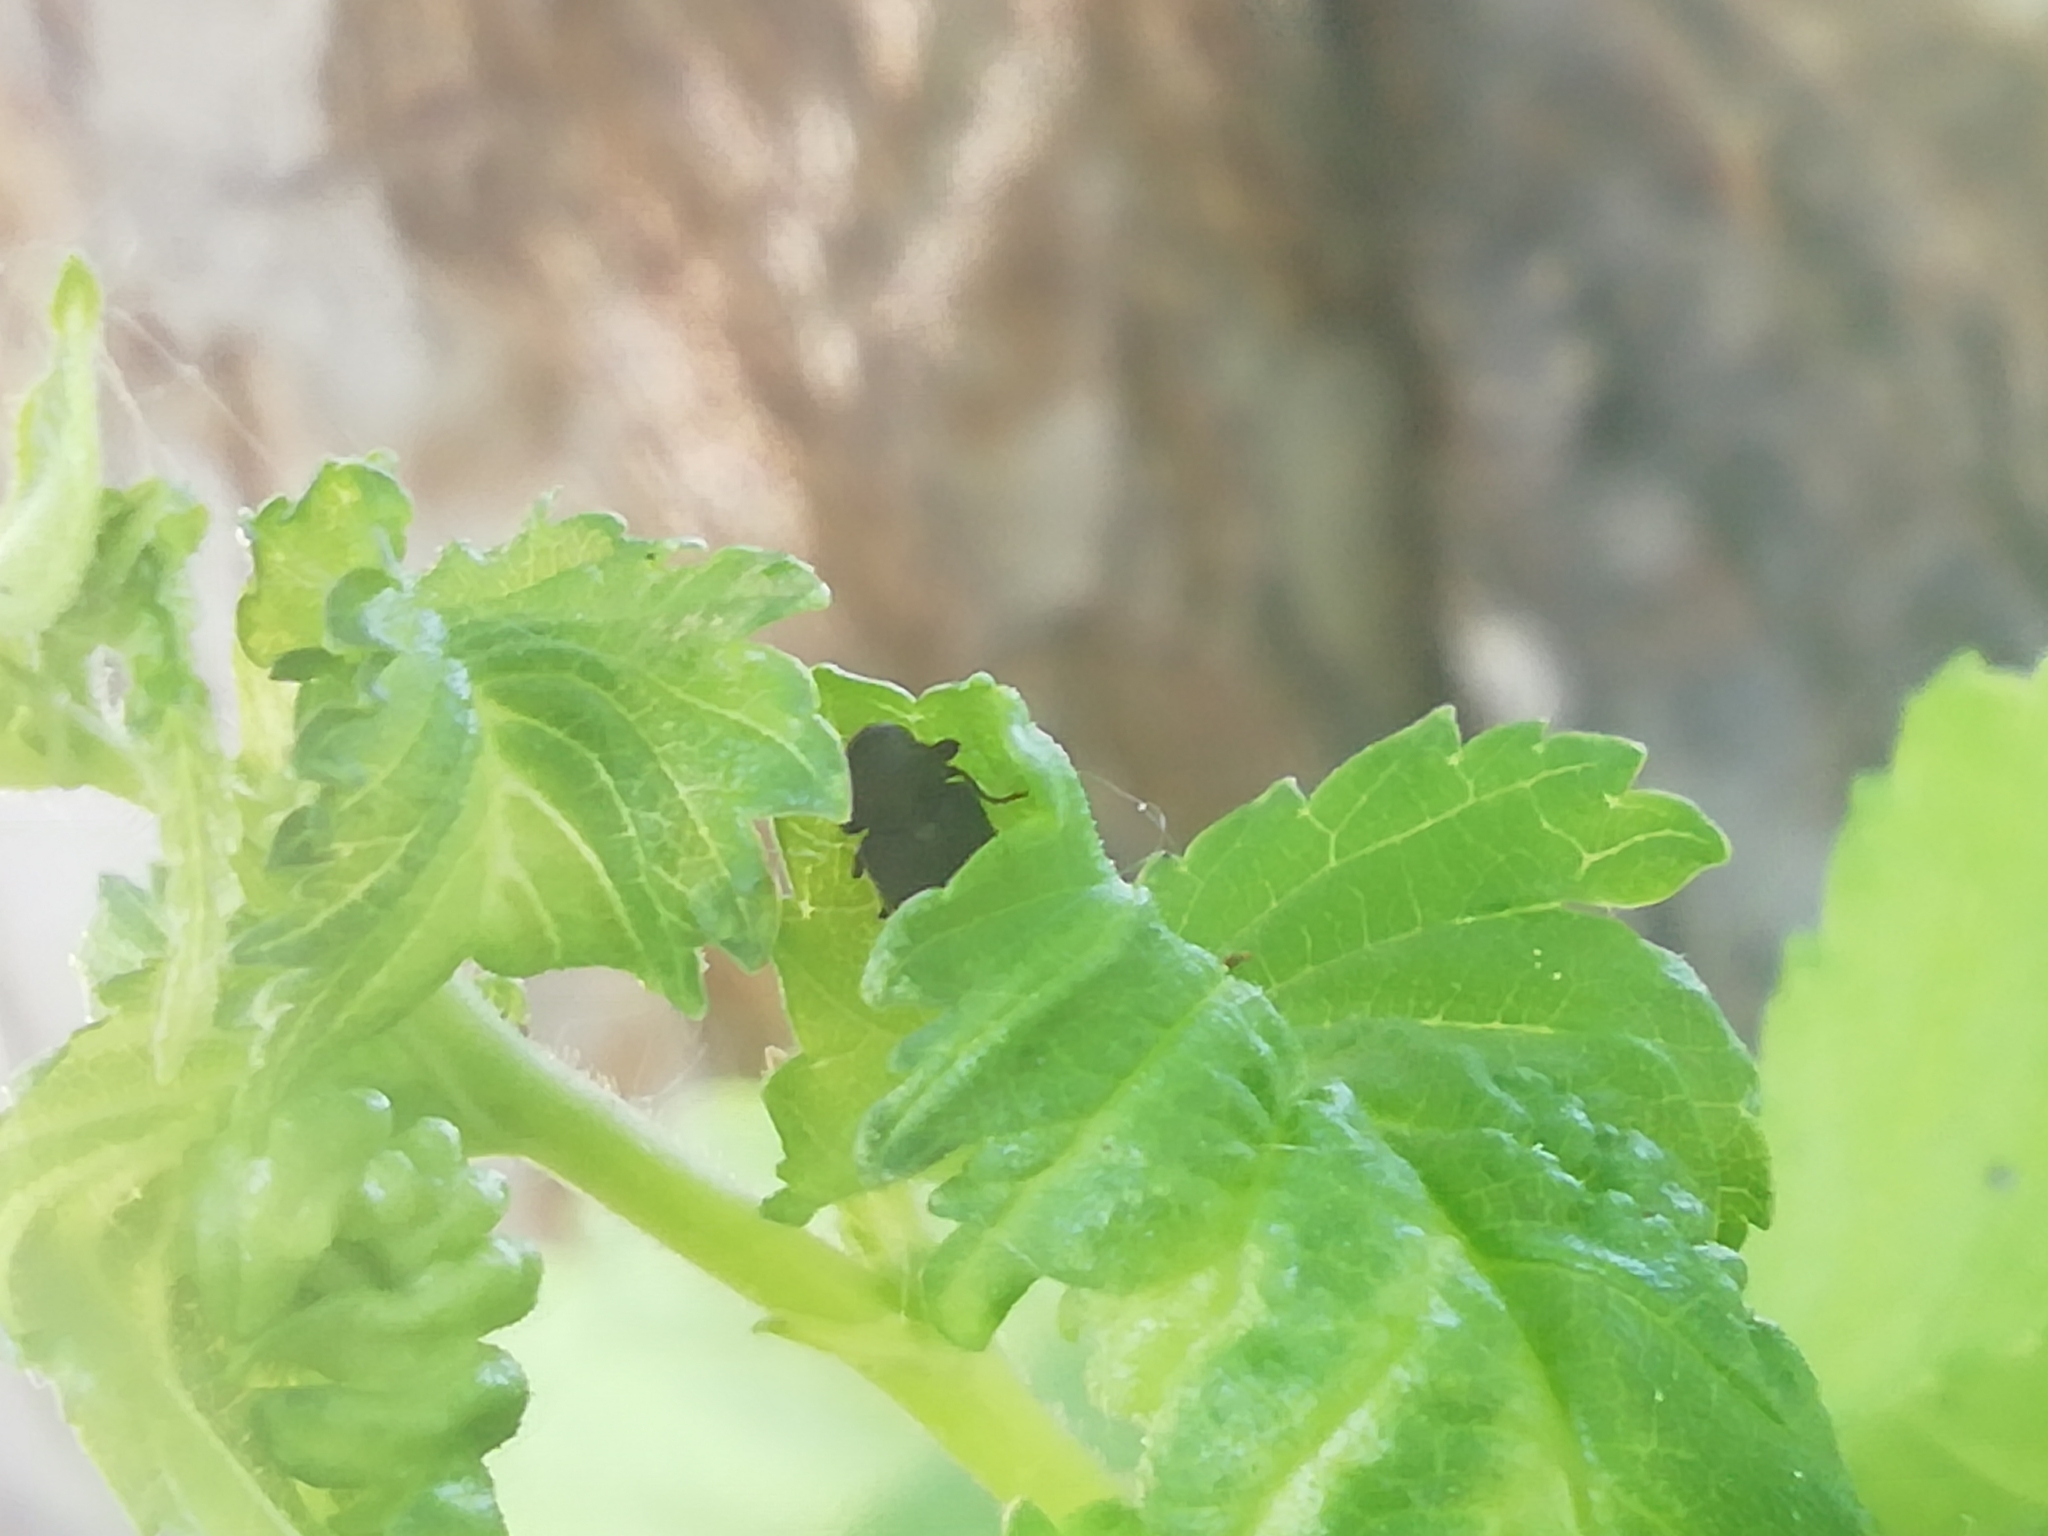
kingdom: Animalia
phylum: Arthropoda
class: Insecta
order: Coleoptera
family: Anobiidae
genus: Hadrobregmus
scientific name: Hadrobregmus pertinax
